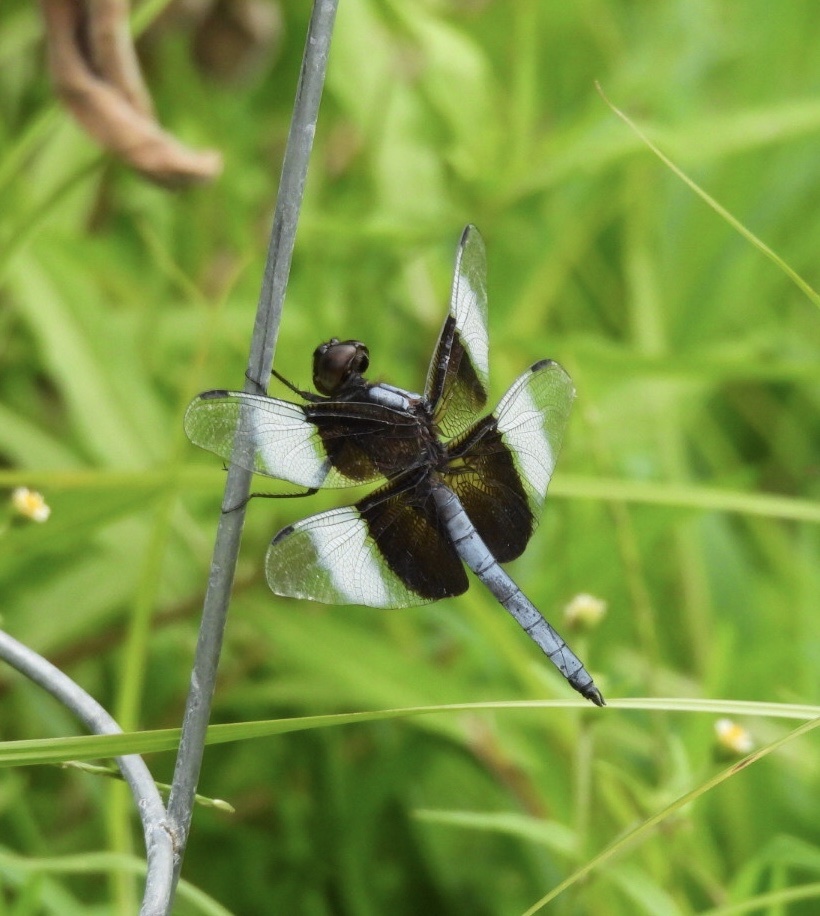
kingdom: Animalia
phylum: Arthropoda
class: Insecta
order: Odonata
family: Libellulidae
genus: Libellula
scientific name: Libellula luctuosa
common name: Widow skimmer
